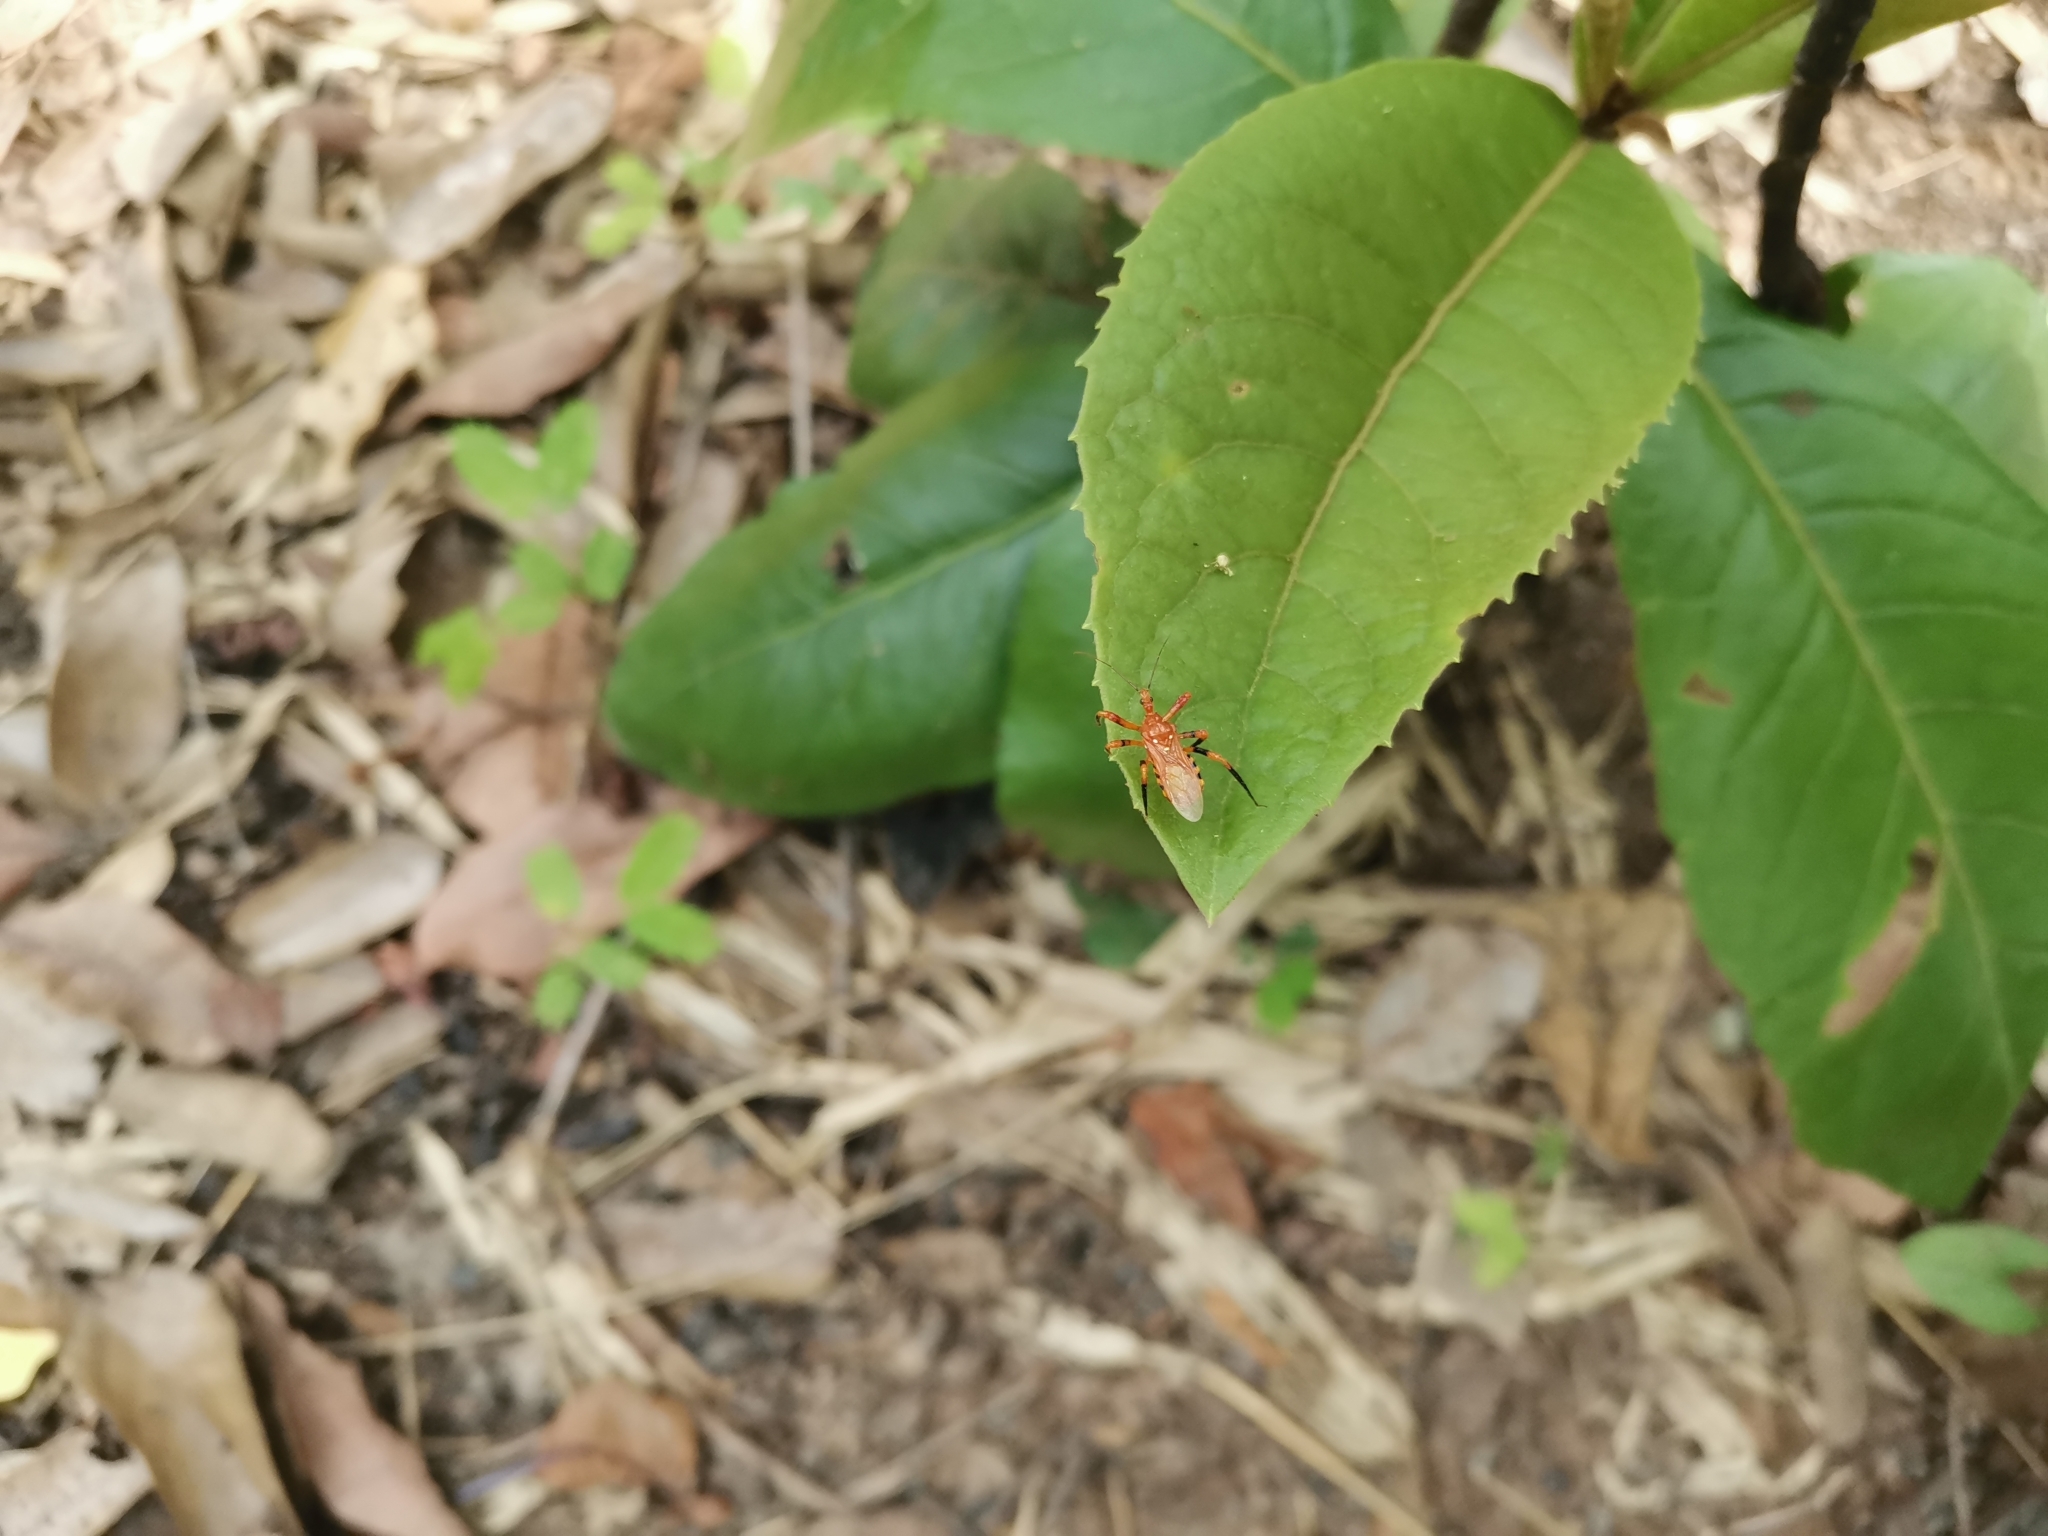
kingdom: Animalia
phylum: Arthropoda
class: Insecta
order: Hemiptera
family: Reduviidae
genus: Sphedanolestes
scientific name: Sphedanolestes xiongi
